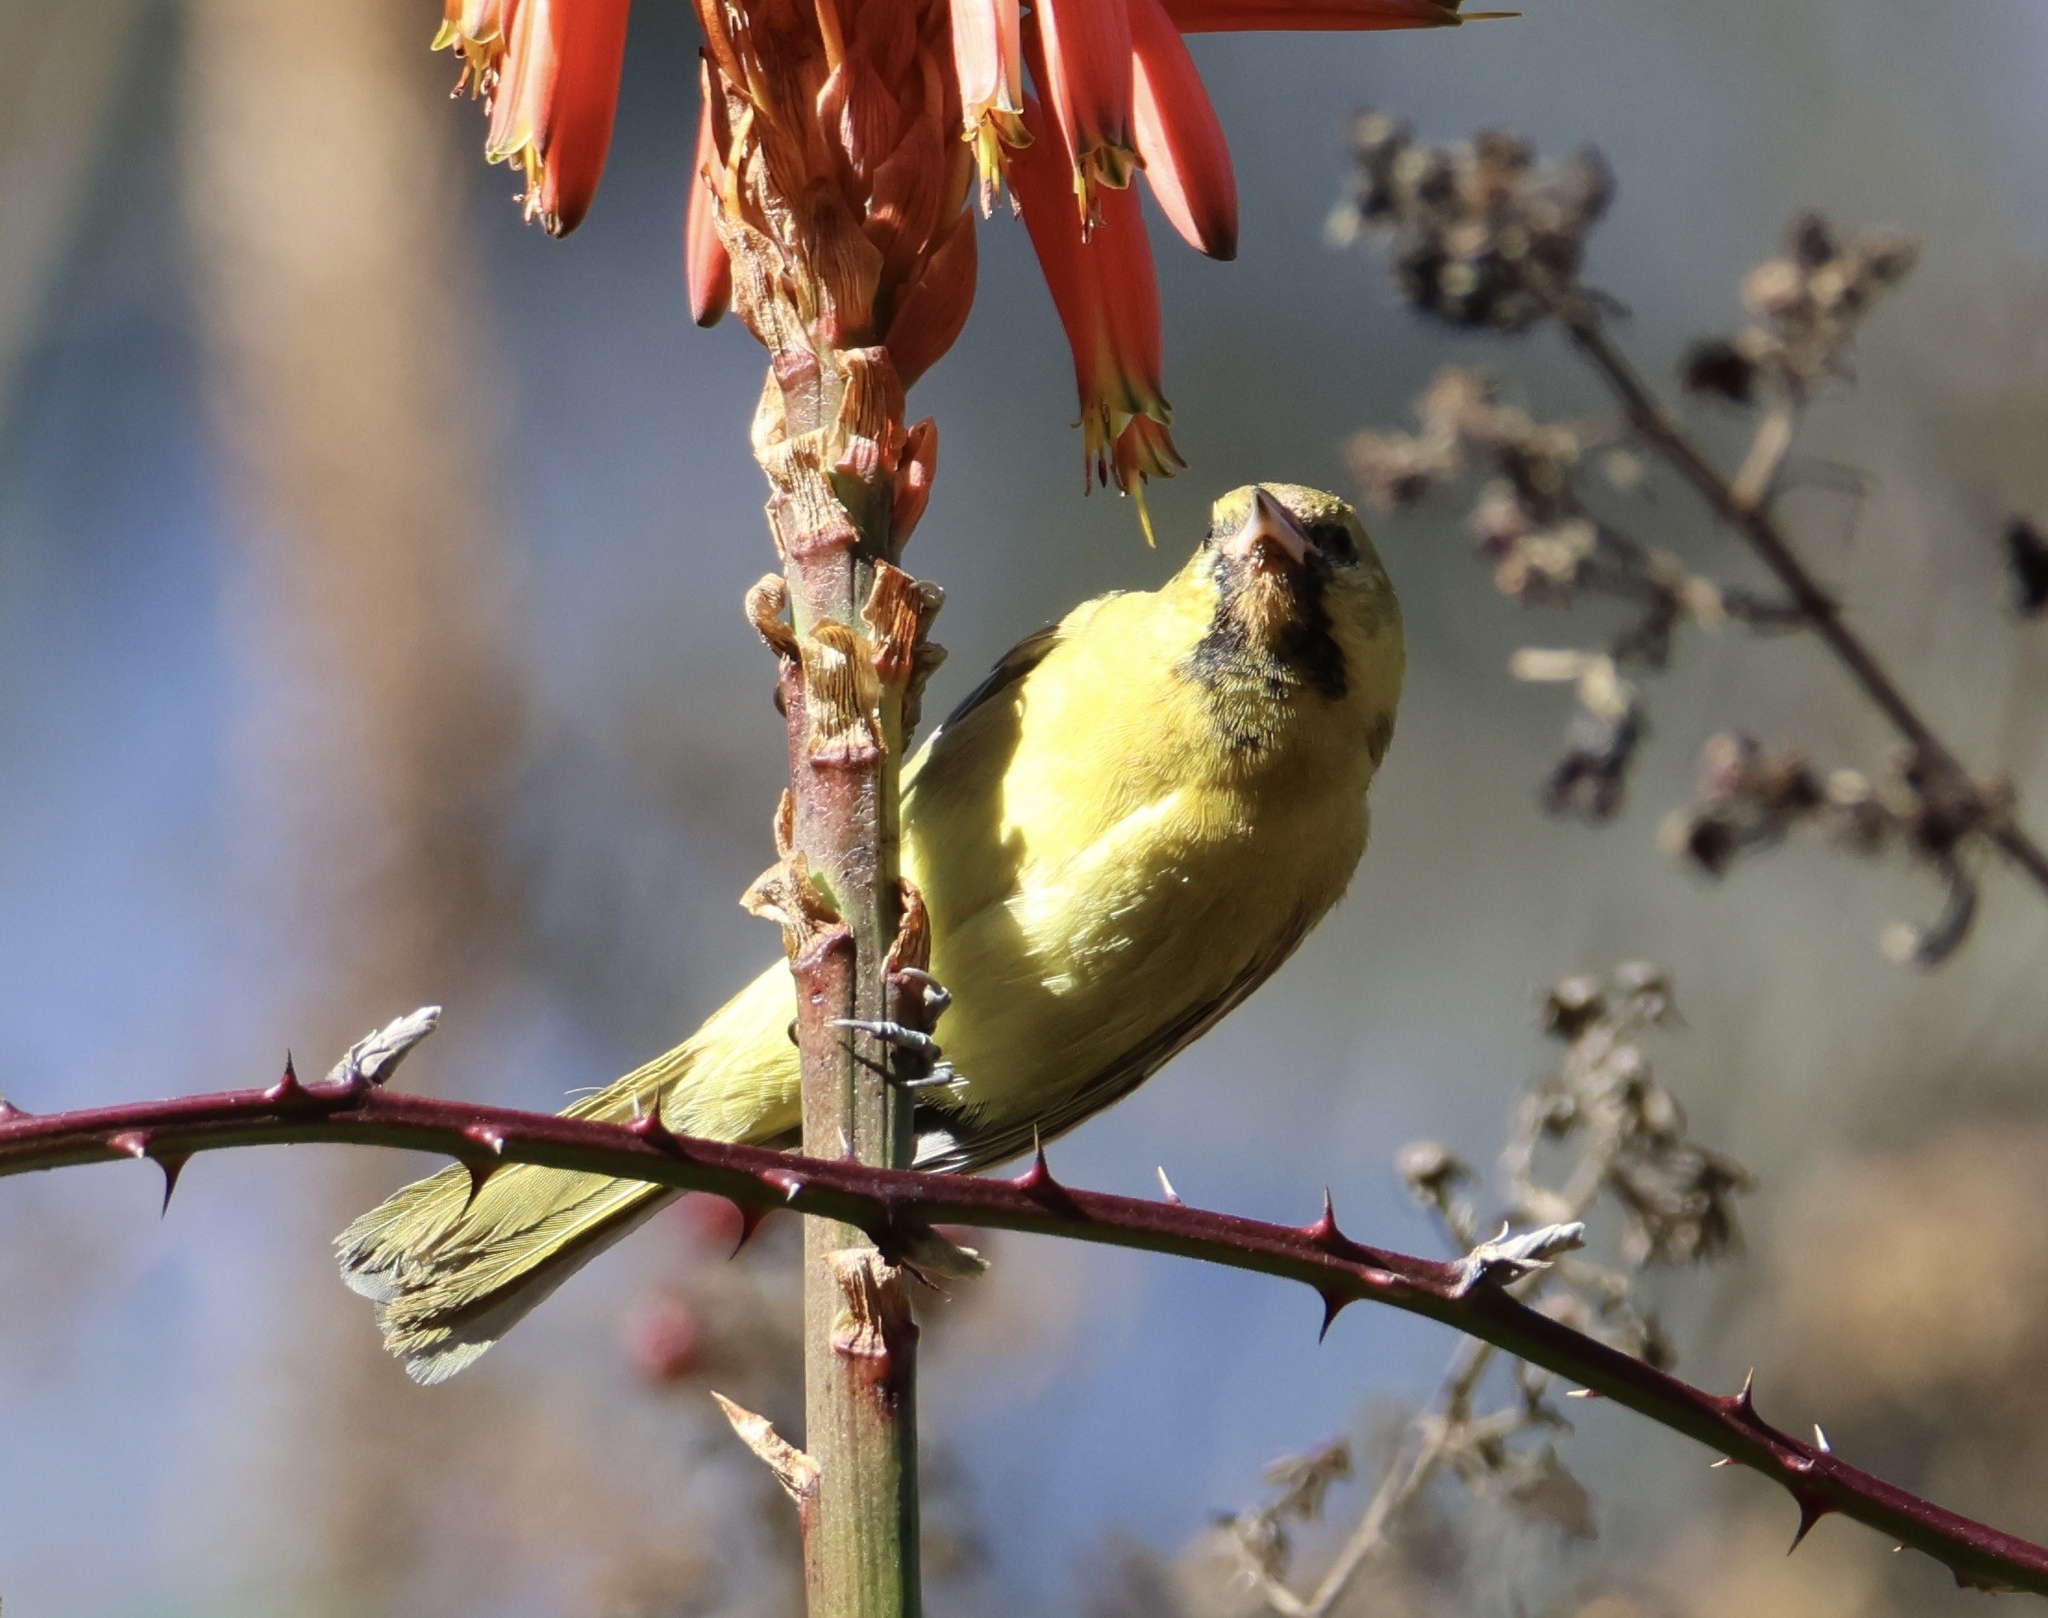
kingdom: Animalia
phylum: Chordata
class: Aves
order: Passeriformes
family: Icteridae
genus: Icterus
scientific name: Icterus spurius
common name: Orchard oriole
